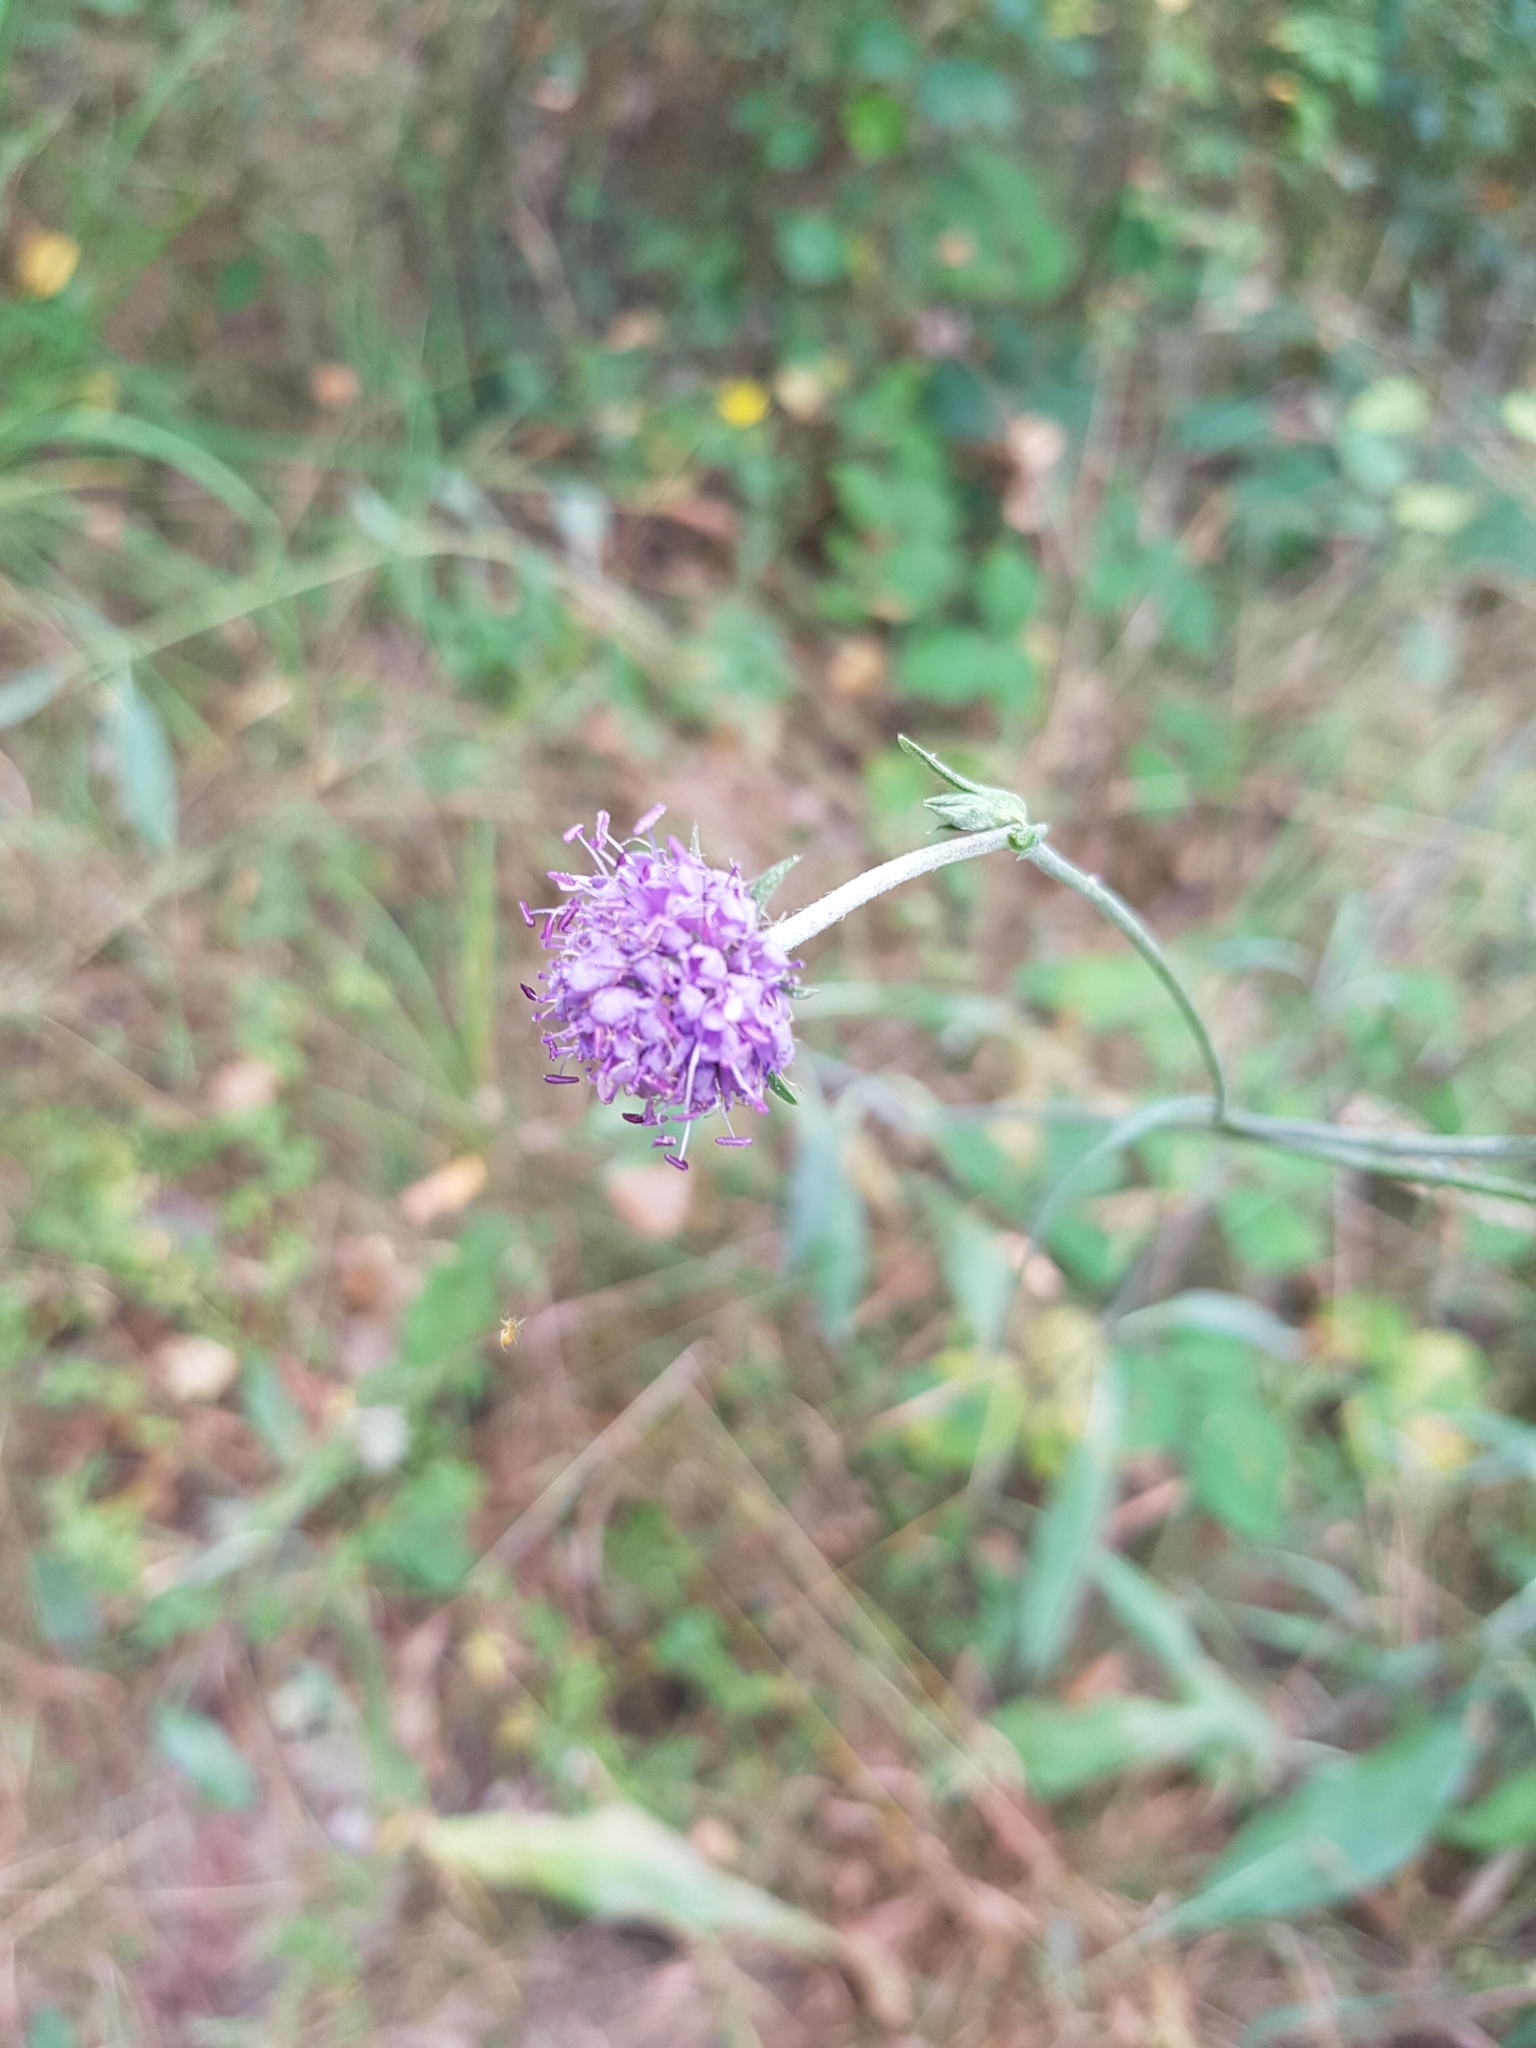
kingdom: Plantae
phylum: Tracheophyta
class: Magnoliopsida
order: Dipsacales
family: Caprifoliaceae
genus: Succisa
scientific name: Succisa pratensis
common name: Devil's-bit
